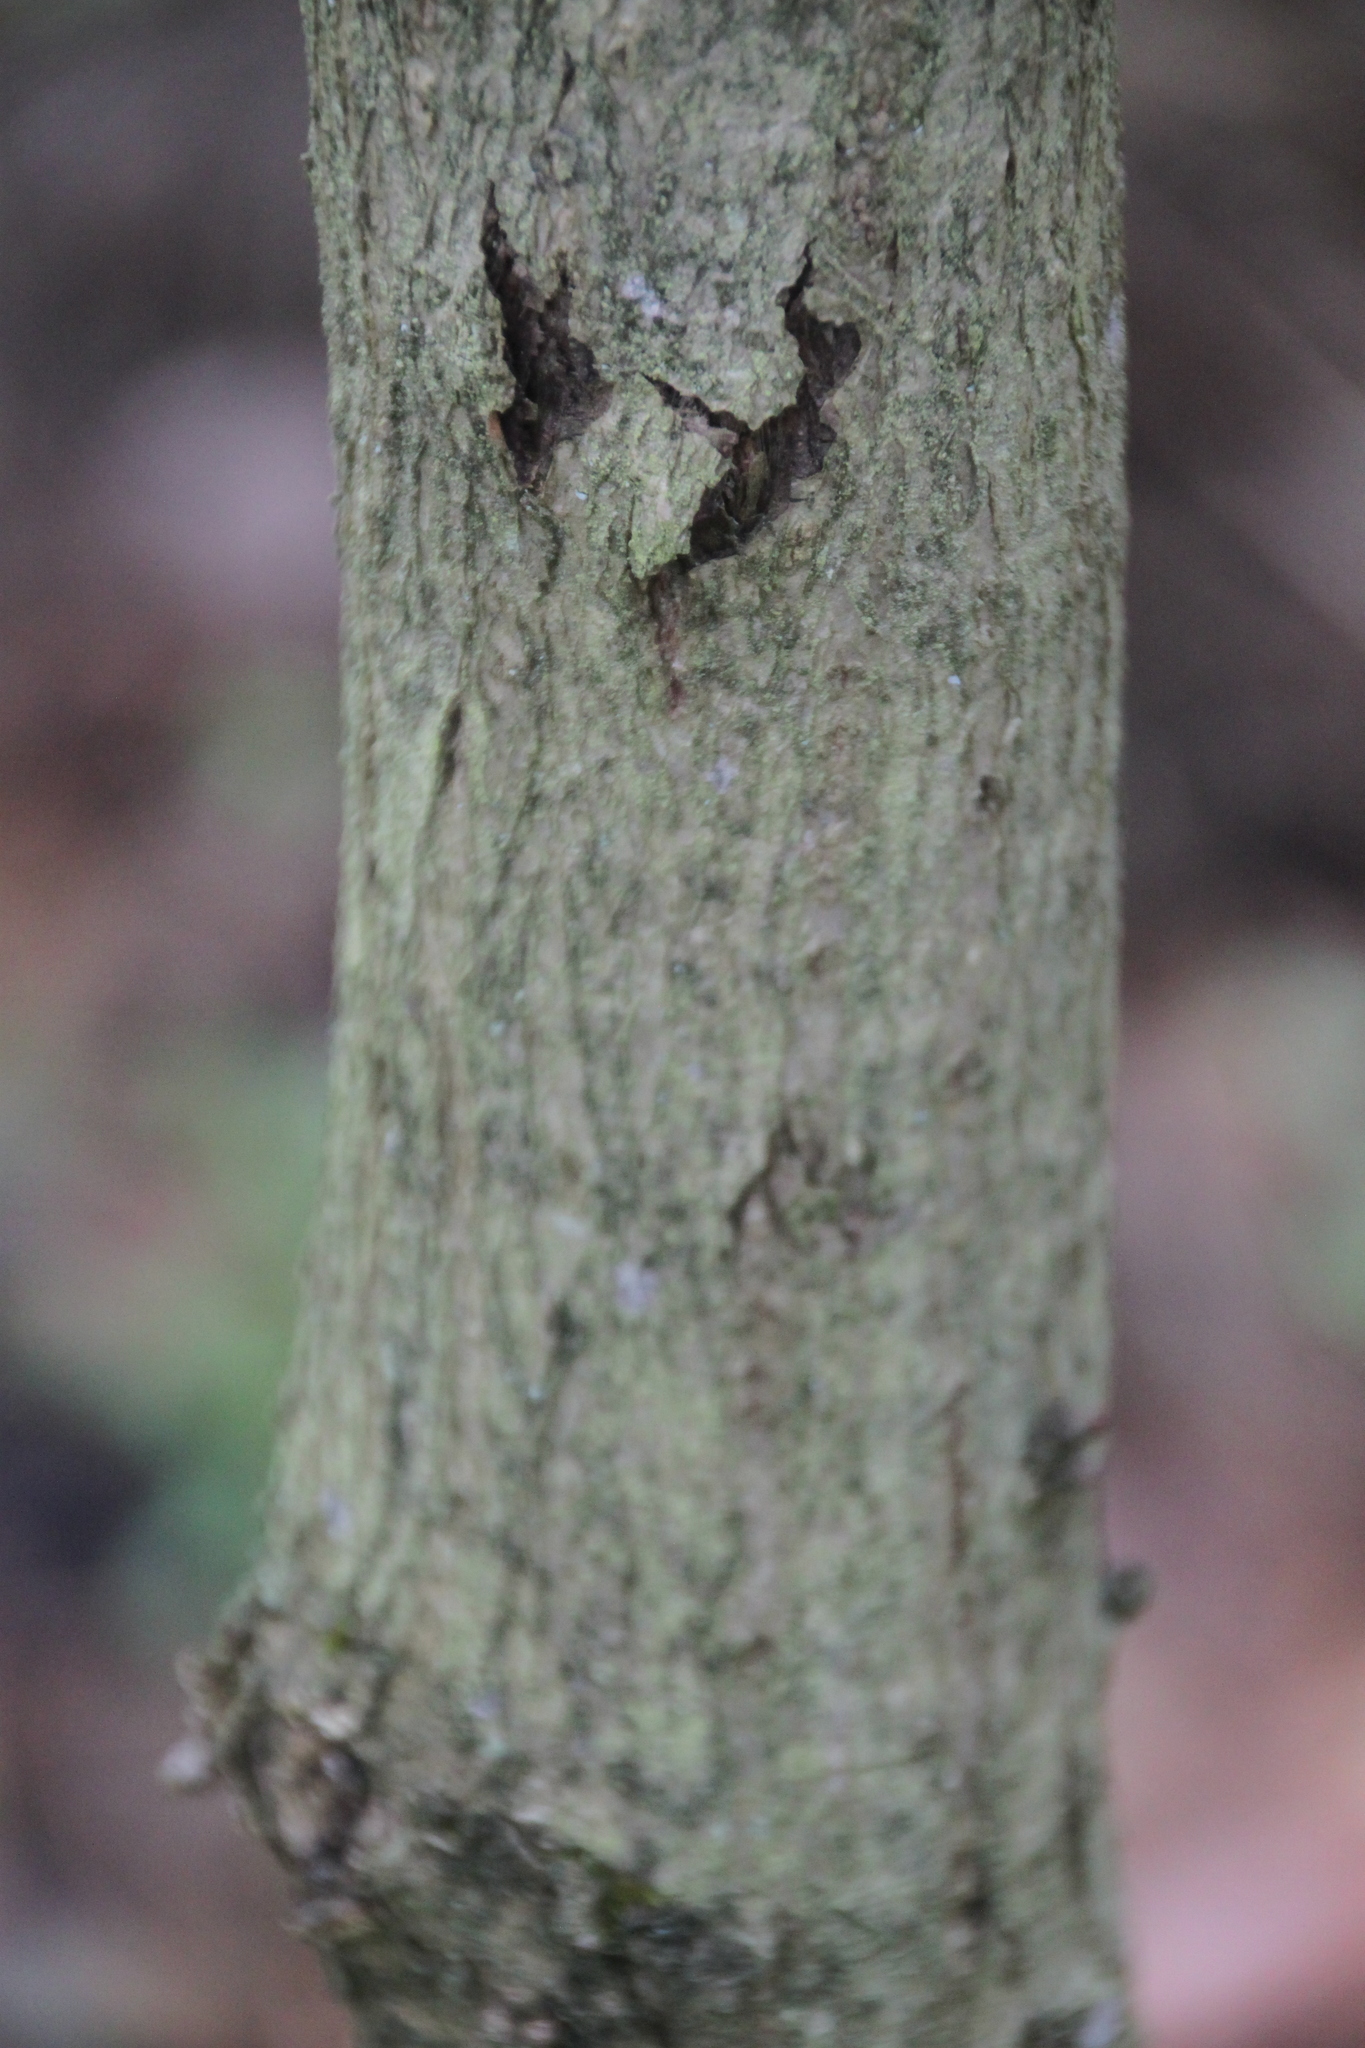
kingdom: Plantae
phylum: Tracheophyta
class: Magnoliopsida
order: Fagales
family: Fagaceae
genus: Quercus
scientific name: Quercus robur
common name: Pedunculate oak
